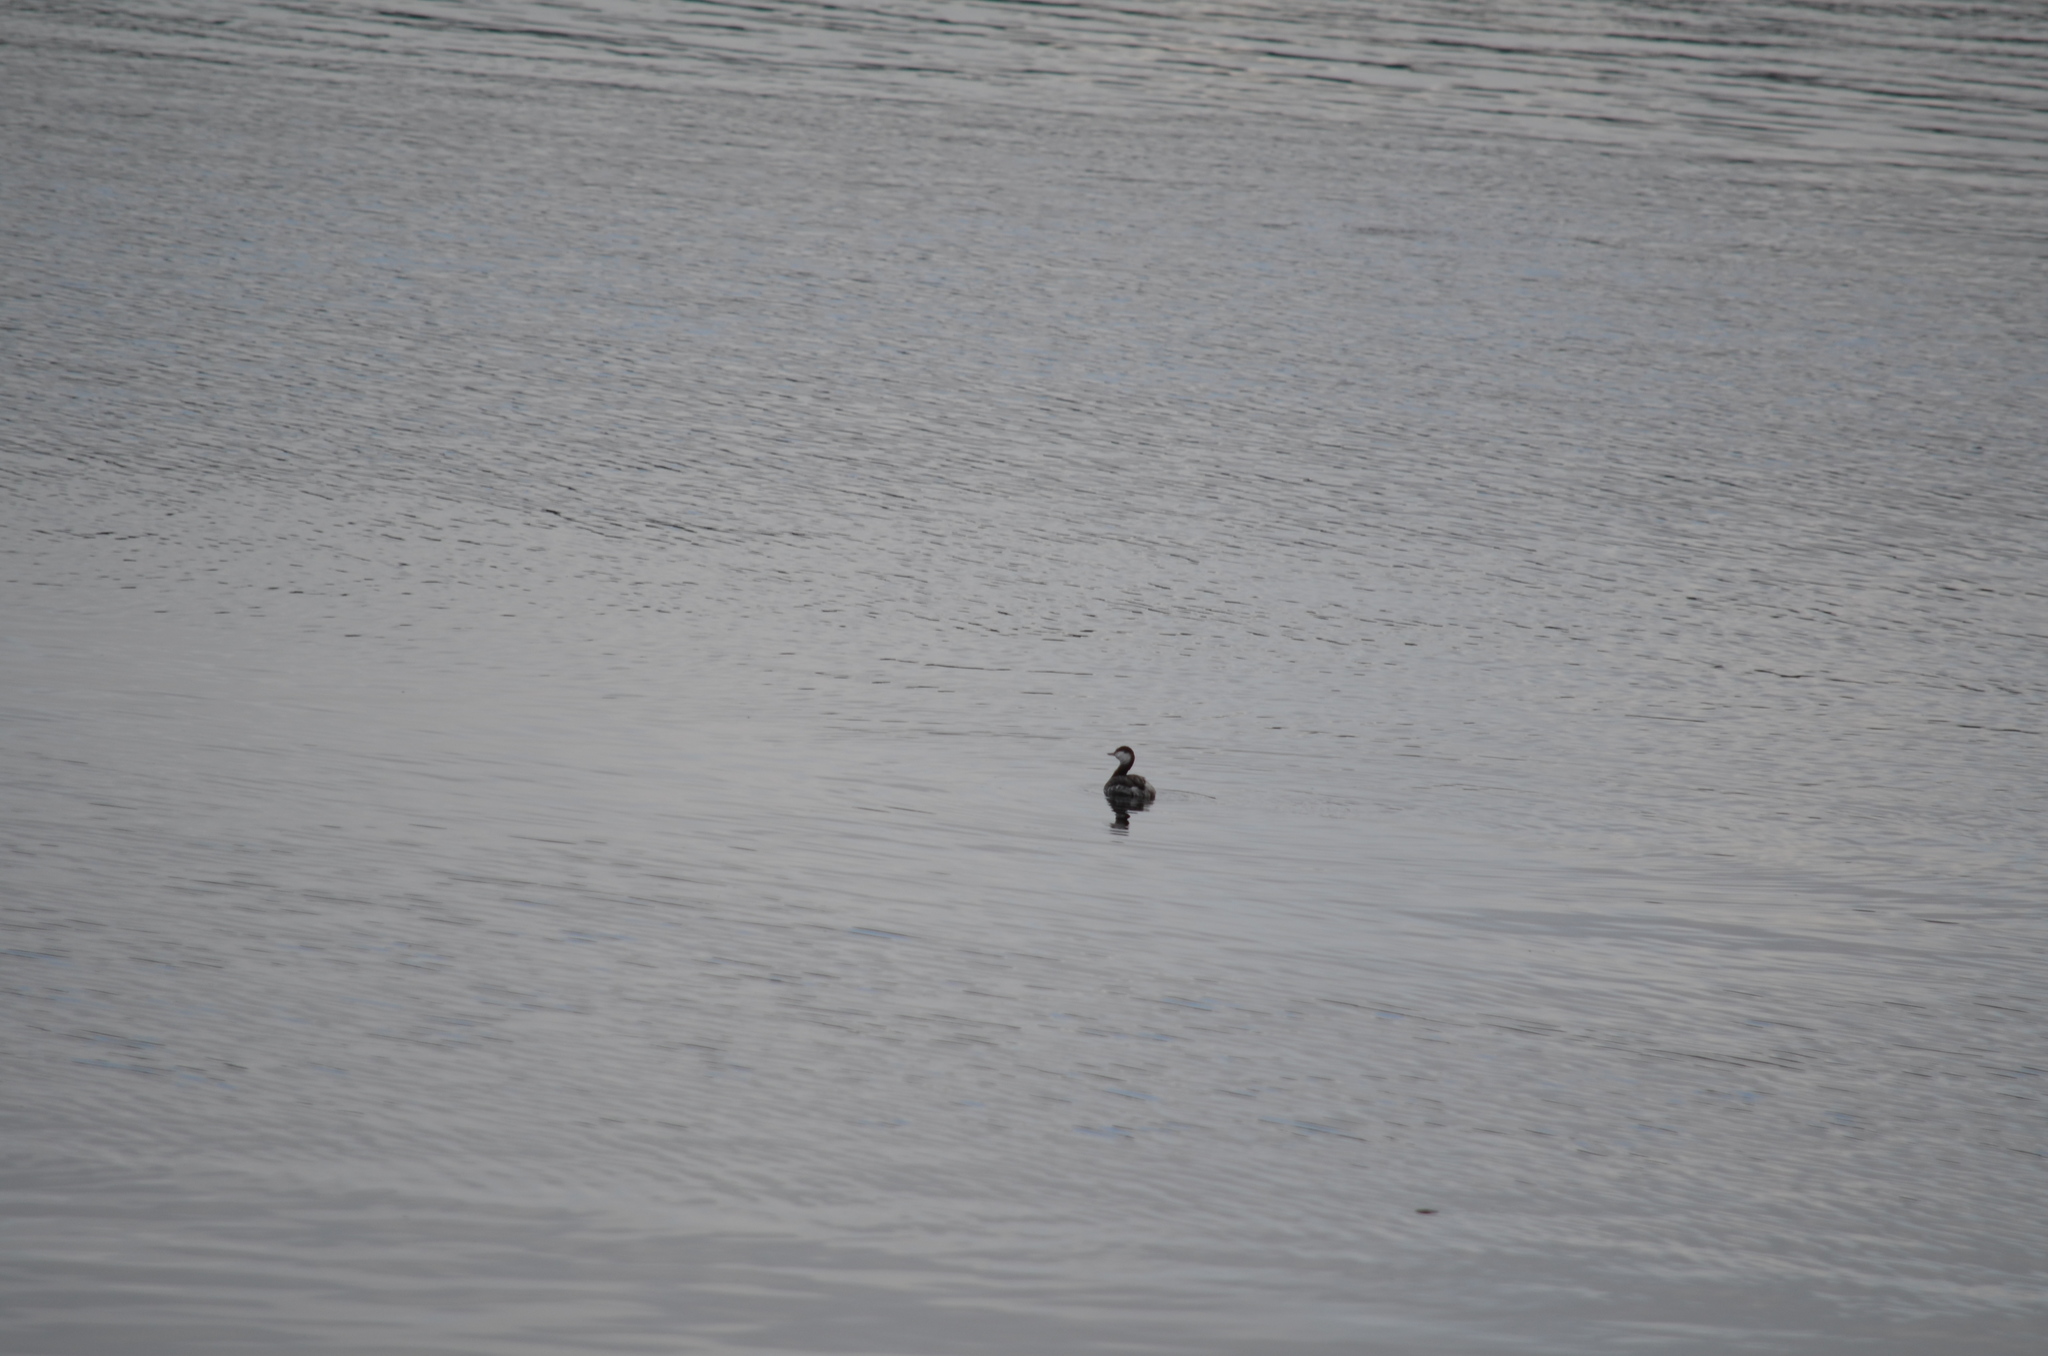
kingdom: Animalia
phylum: Chordata
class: Aves
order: Podicipediformes
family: Podicipedidae
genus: Podiceps
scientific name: Podiceps auritus
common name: Horned grebe
